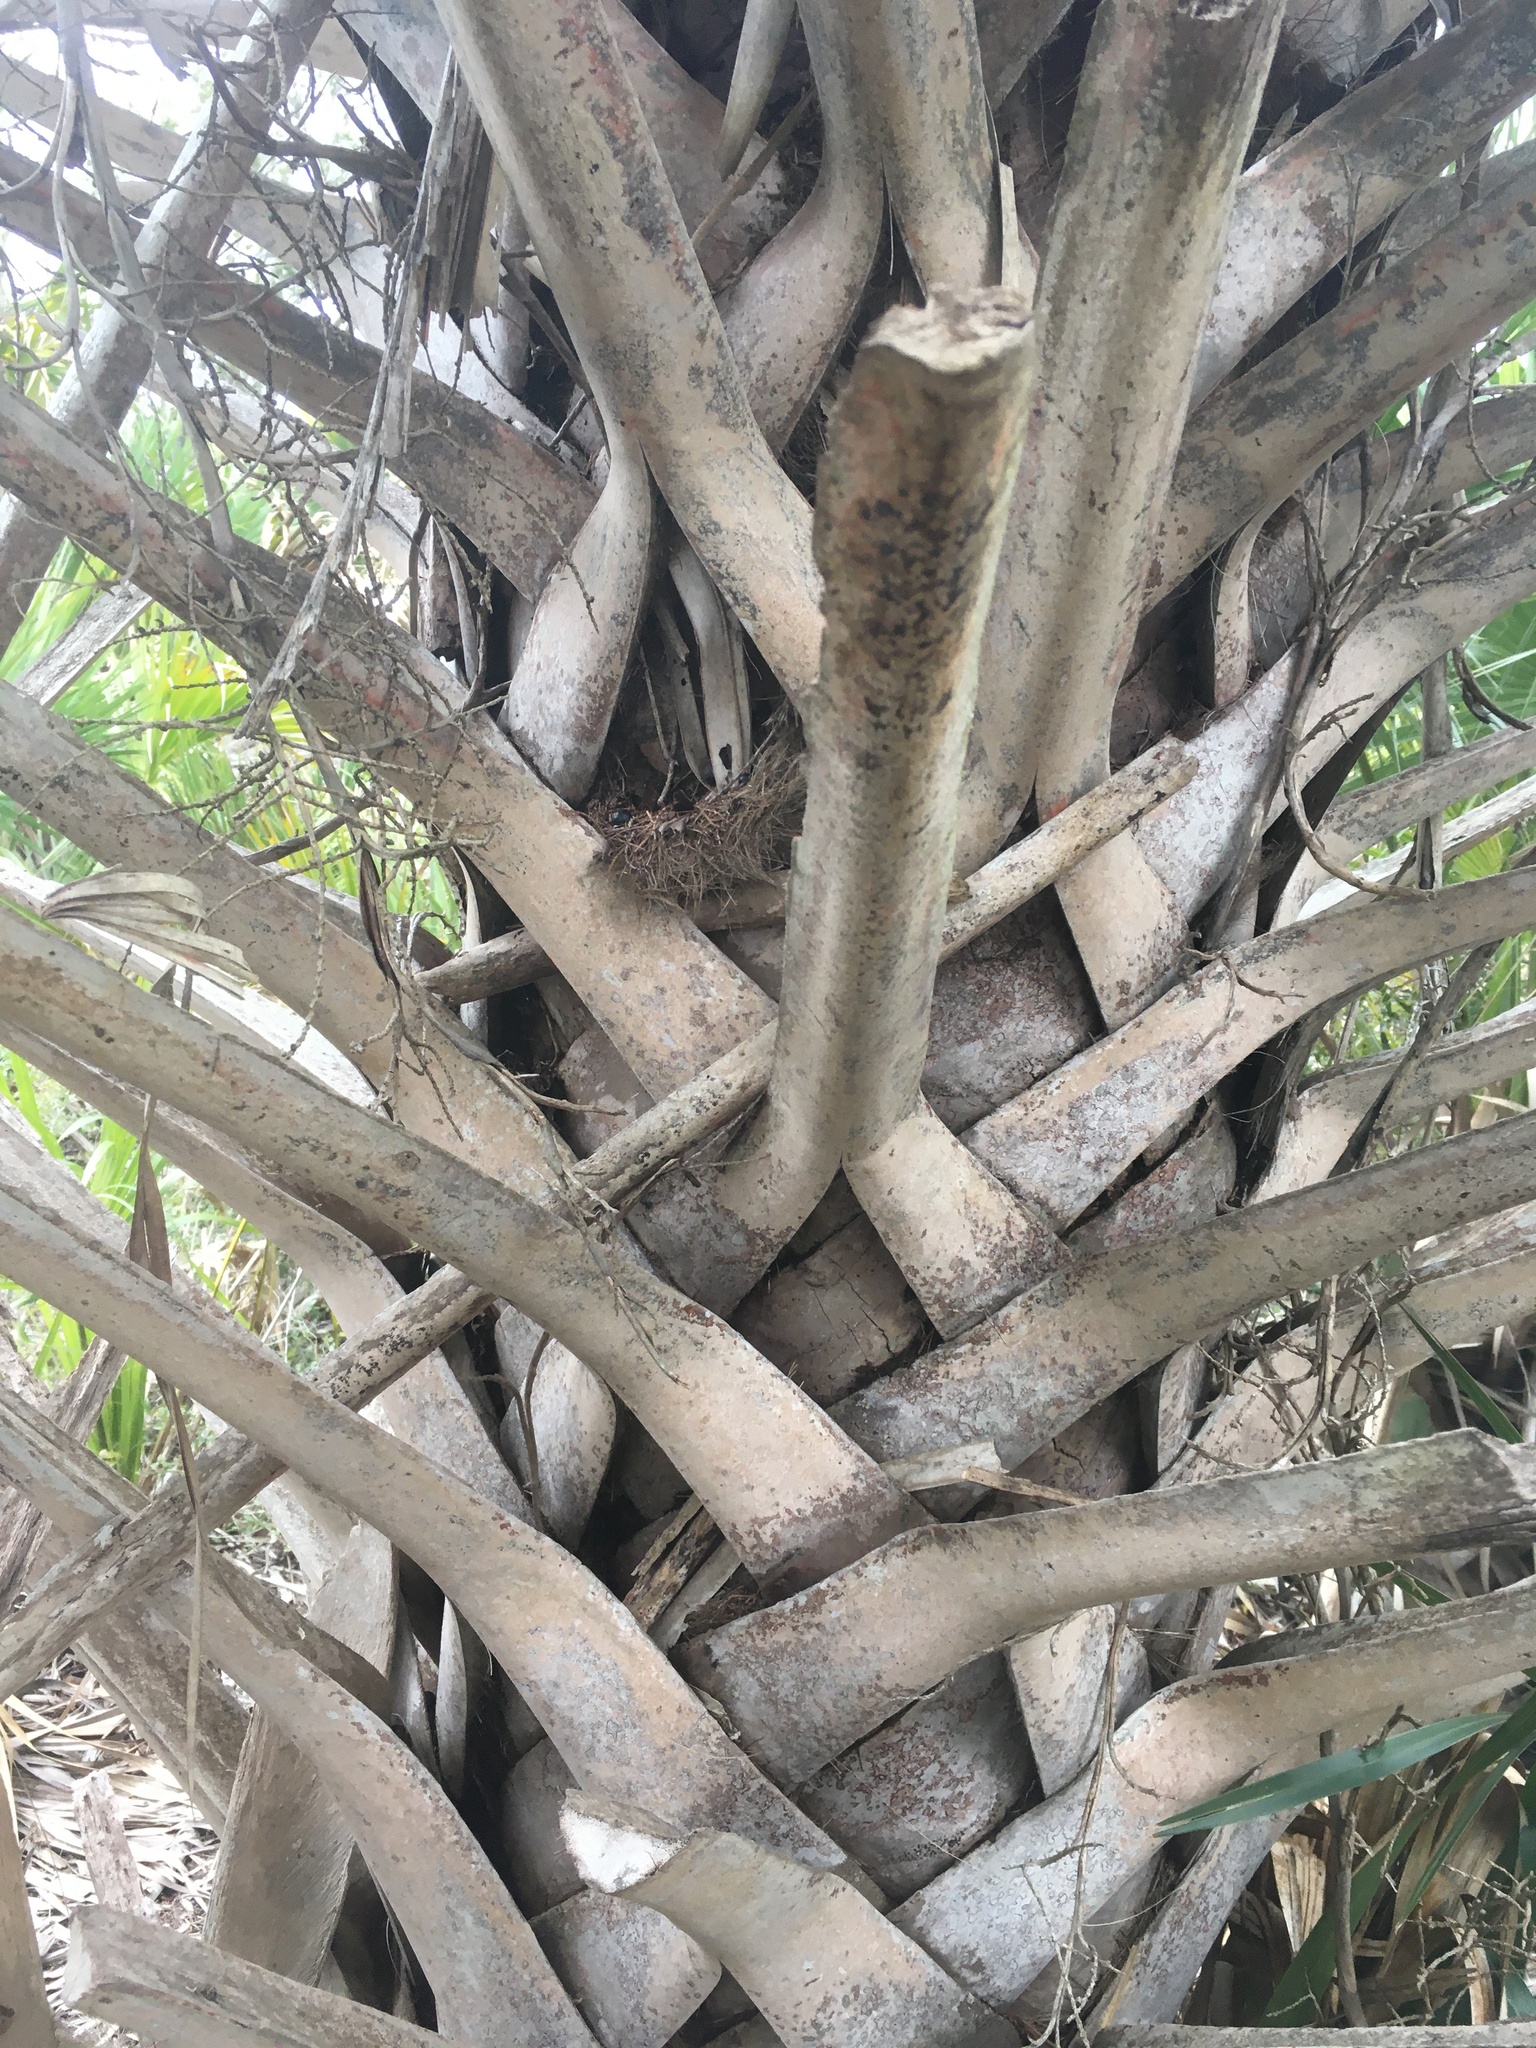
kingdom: Plantae
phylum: Tracheophyta
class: Liliopsida
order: Arecales
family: Arecaceae
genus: Sabal
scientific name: Sabal palmetto
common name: Blue palmetto
